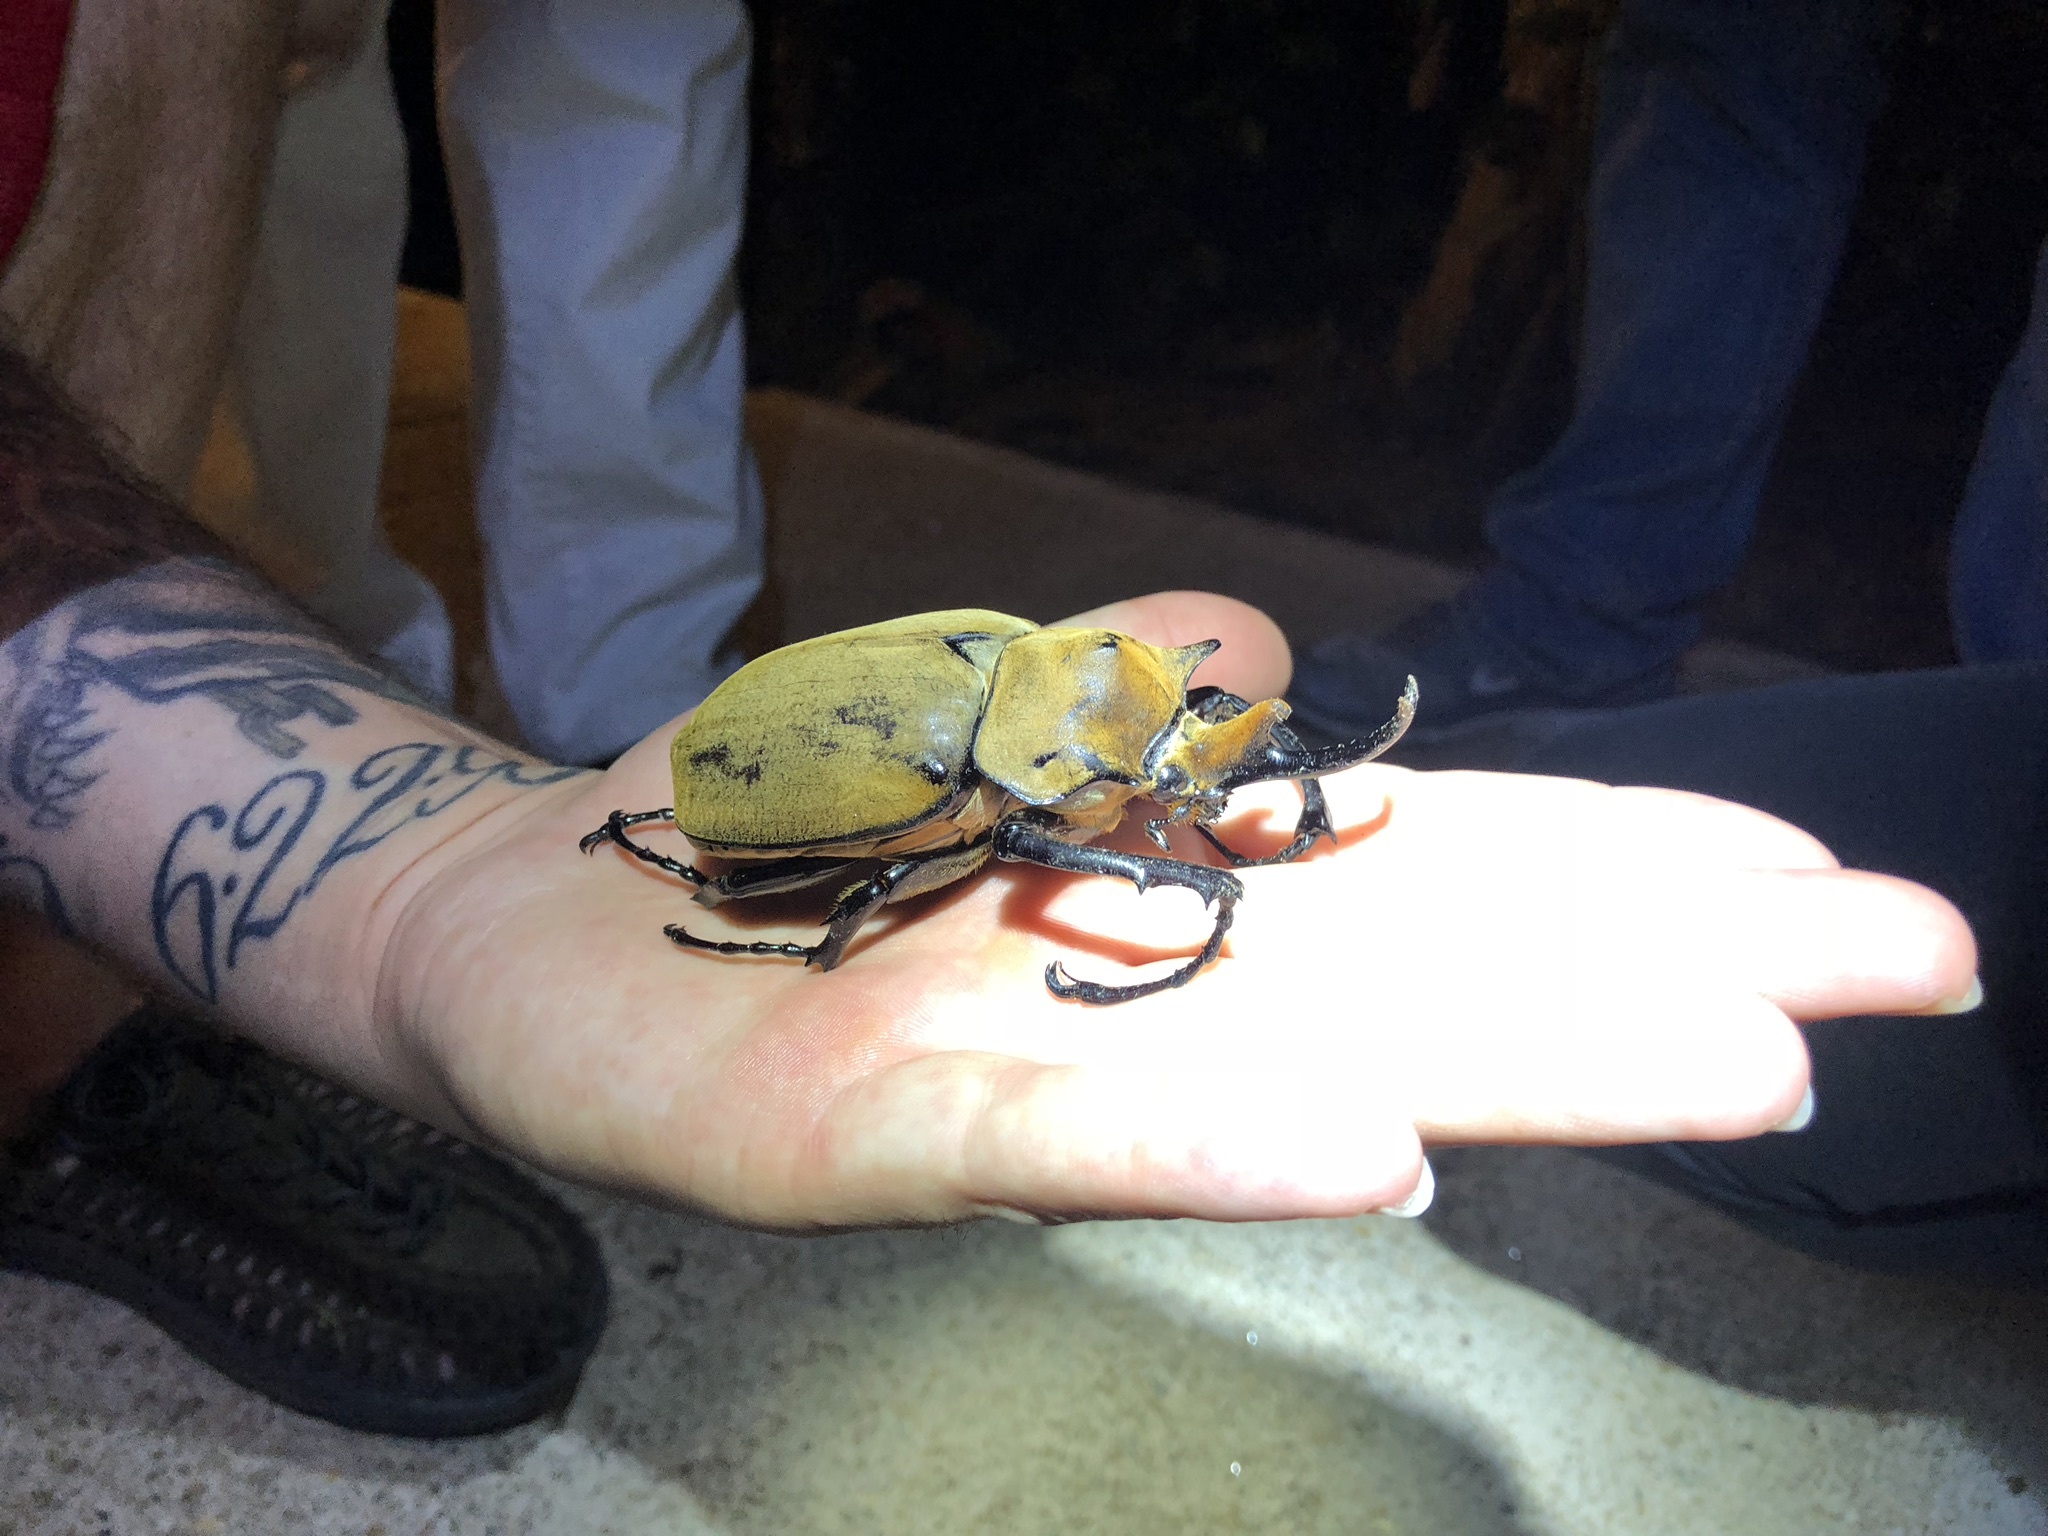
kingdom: Animalia
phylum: Arthropoda
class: Insecta
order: Coleoptera
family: Scarabaeidae
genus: Megasoma
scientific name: Megasoma elephas
